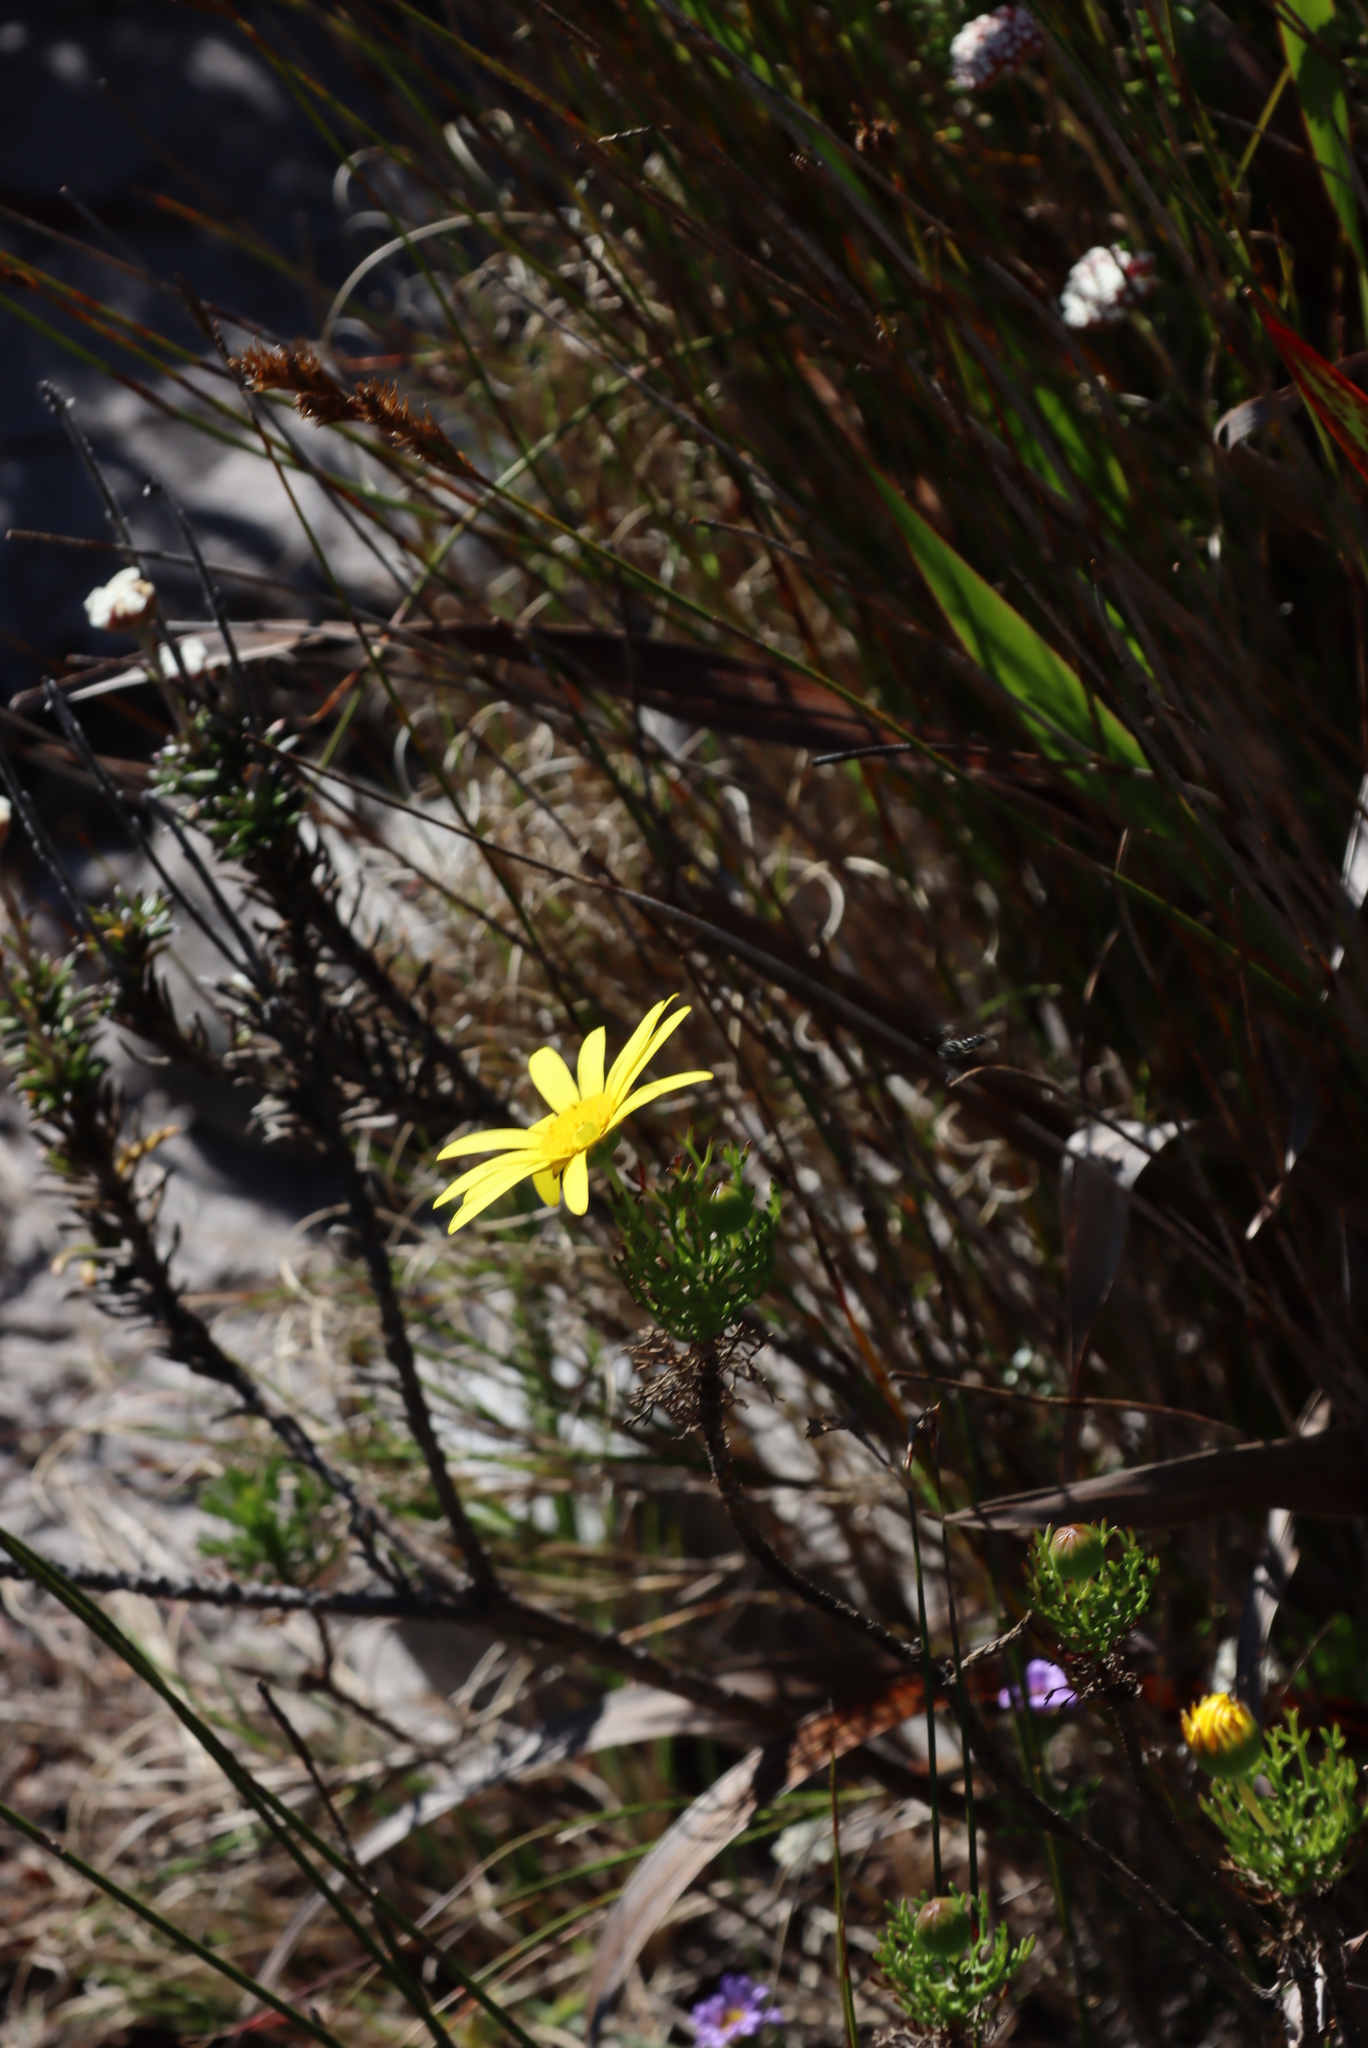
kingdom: Plantae
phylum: Tracheophyta
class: Magnoliopsida
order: Asterales
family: Asteraceae
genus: Euryops
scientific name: Euryops abrotanifolius
